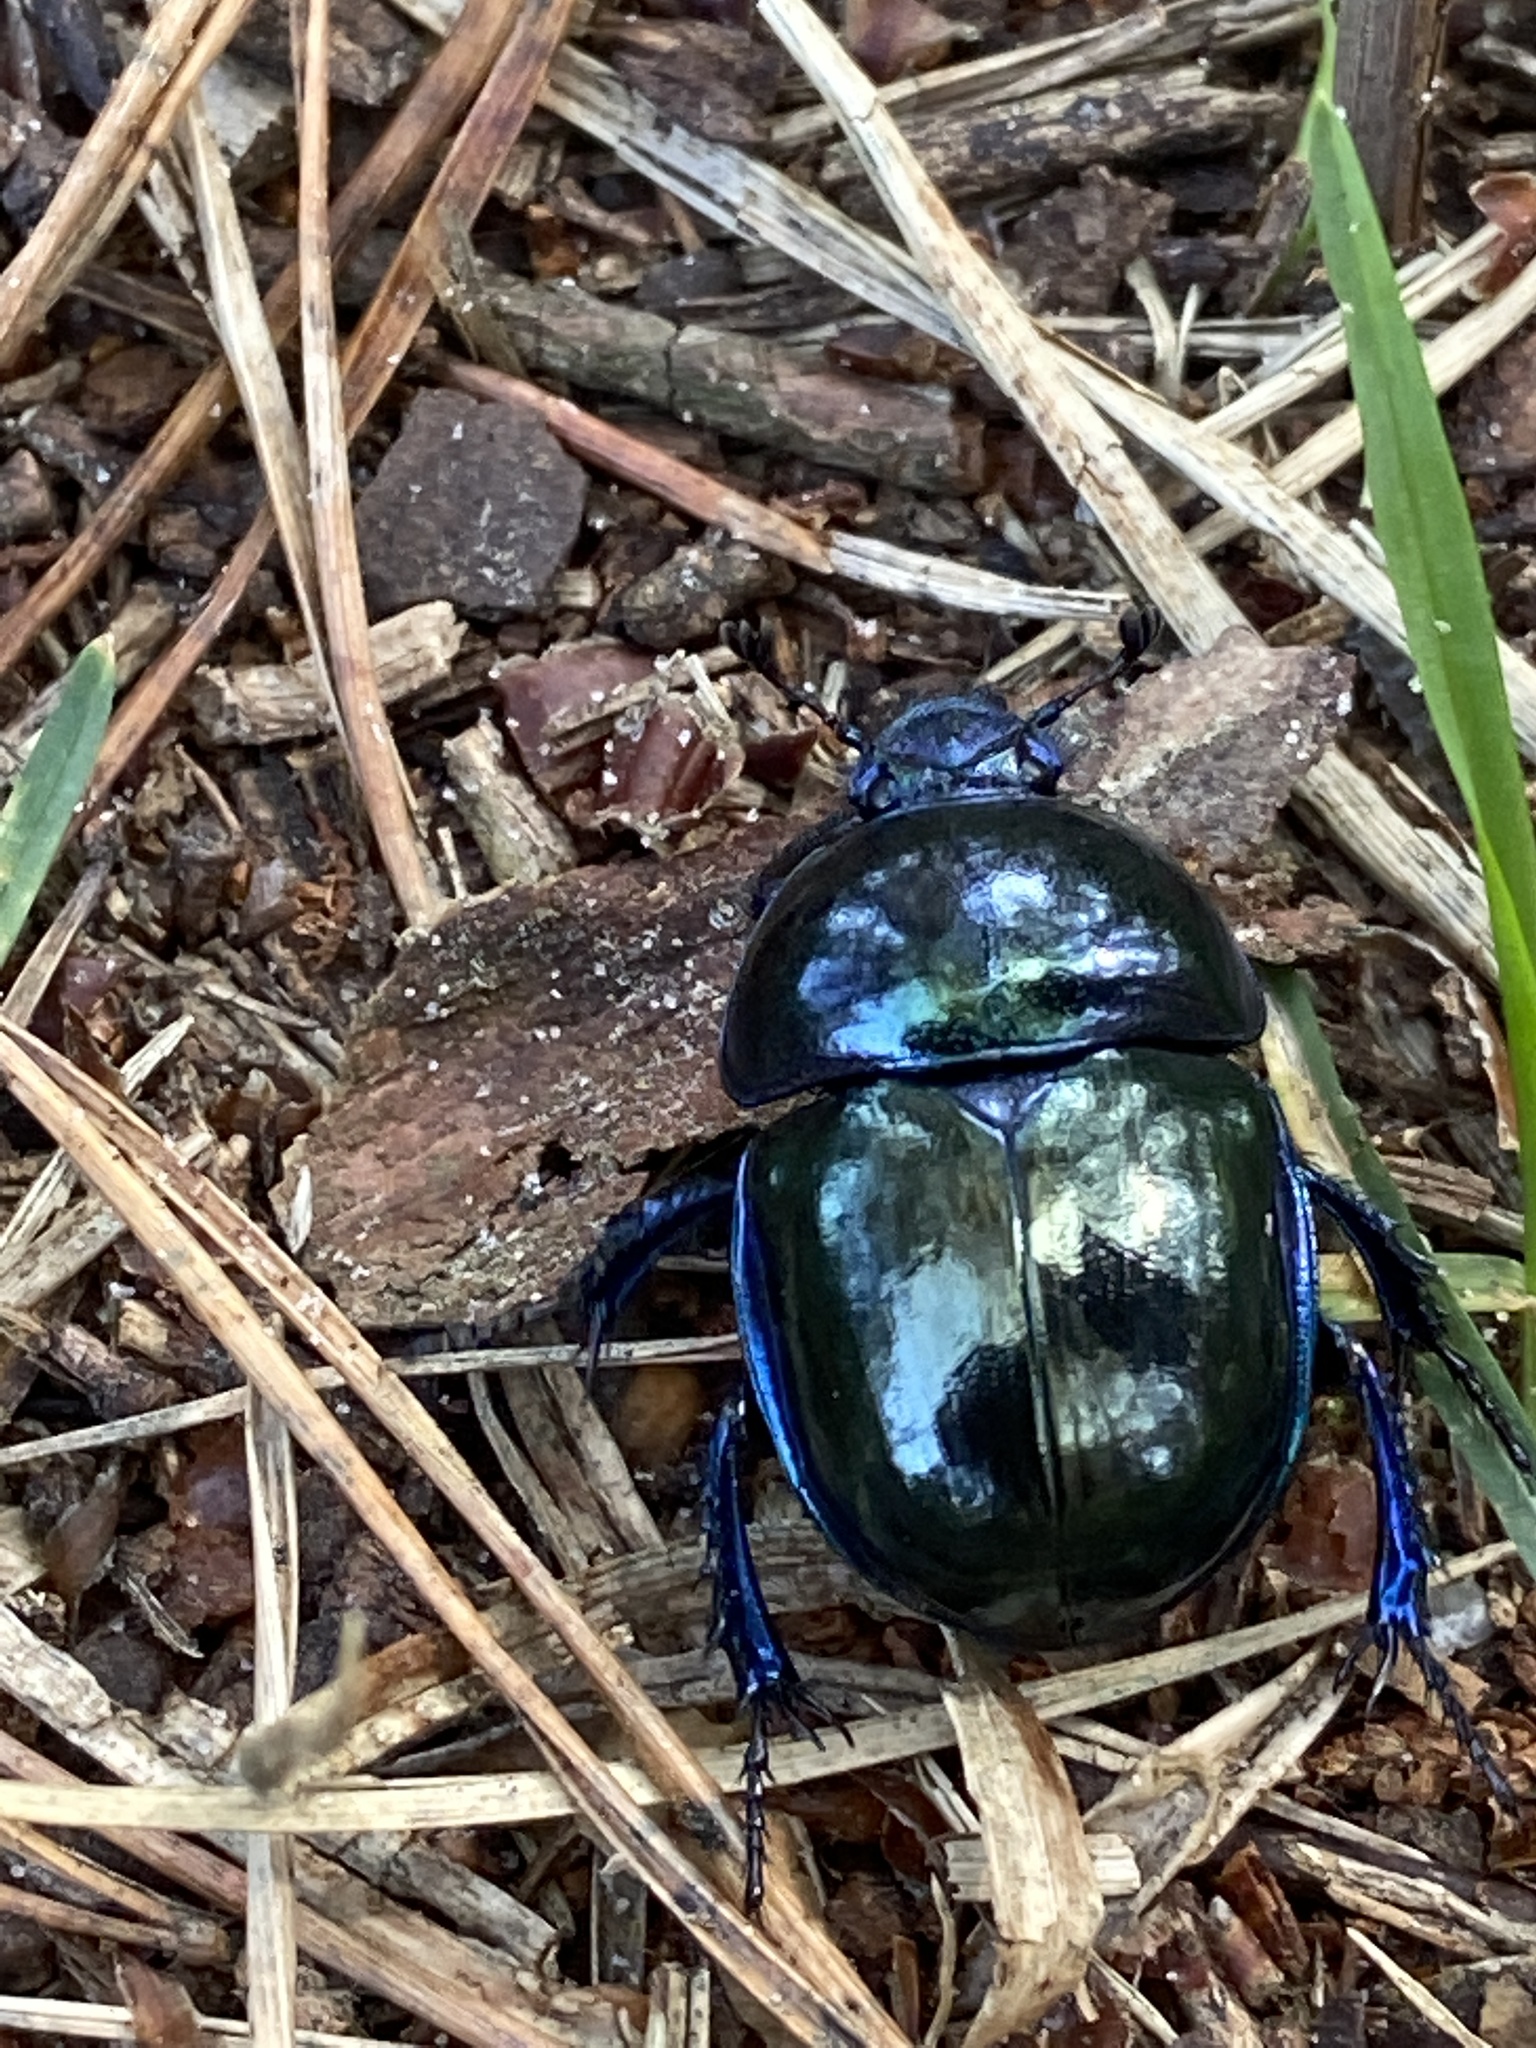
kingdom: Animalia
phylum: Arthropoda
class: Insecta
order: Coleoptera
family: Geotrupidae
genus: Trypocopris
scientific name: Trypocopris vernalis
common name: Spring dumbledor
